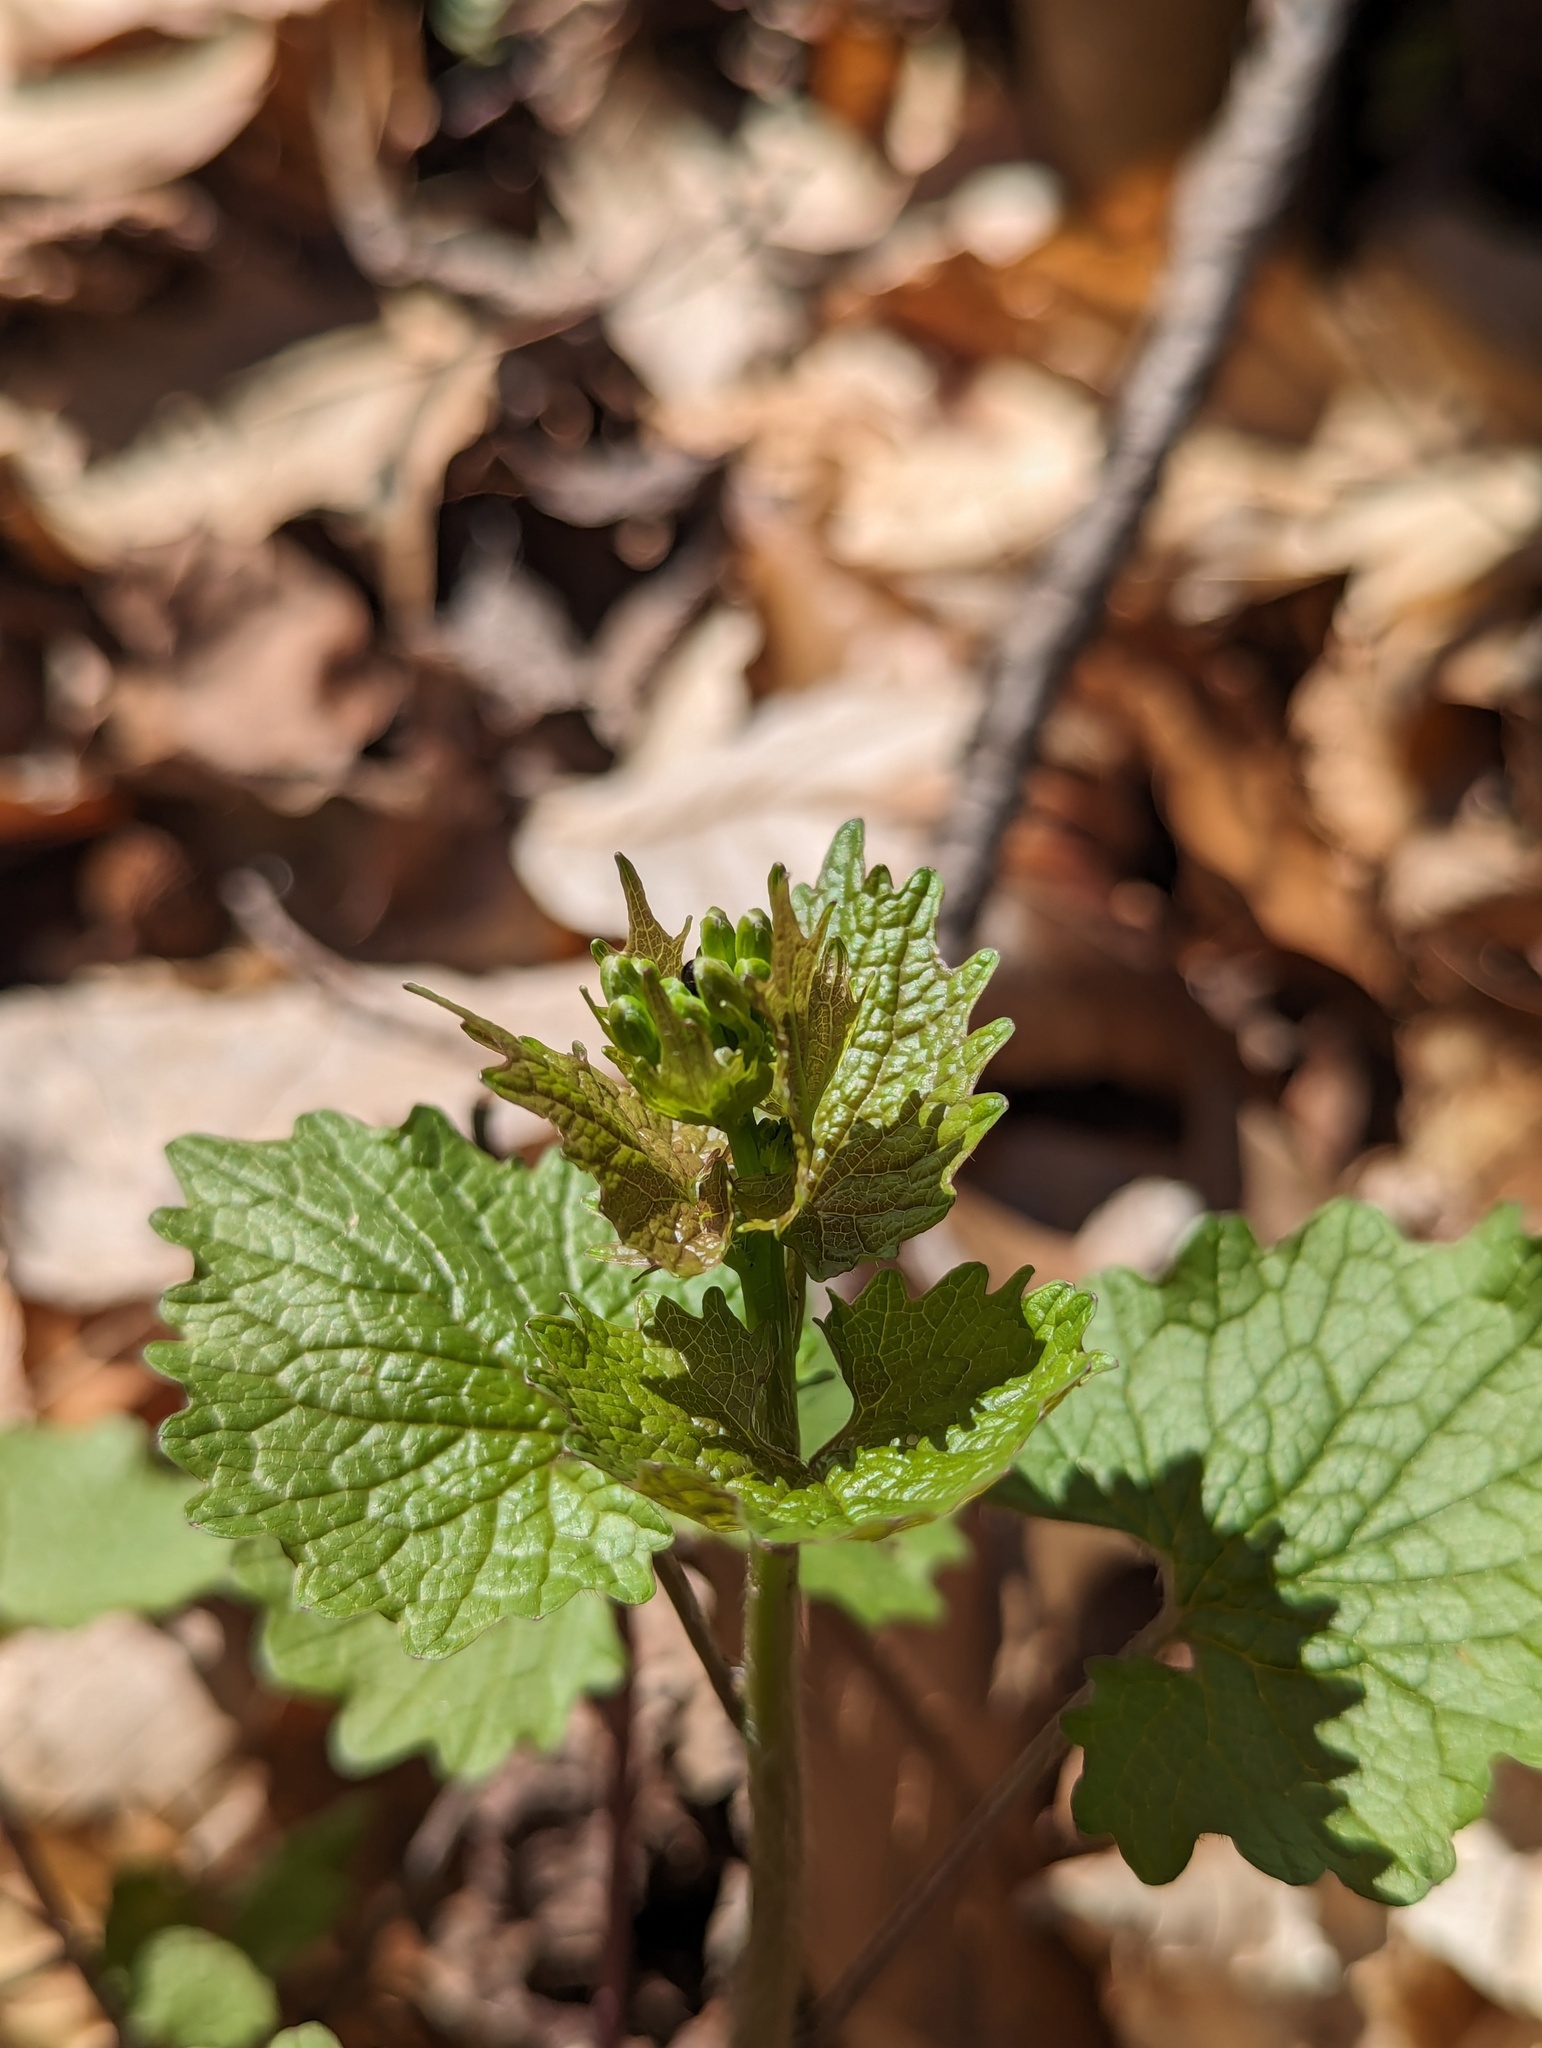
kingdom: Plantae
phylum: Tracheophyta
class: Magnoliopsida
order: Brassicales
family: Brassicaceae
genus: Alliaria
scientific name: Alliaria petiolata
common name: Garlic mustard
